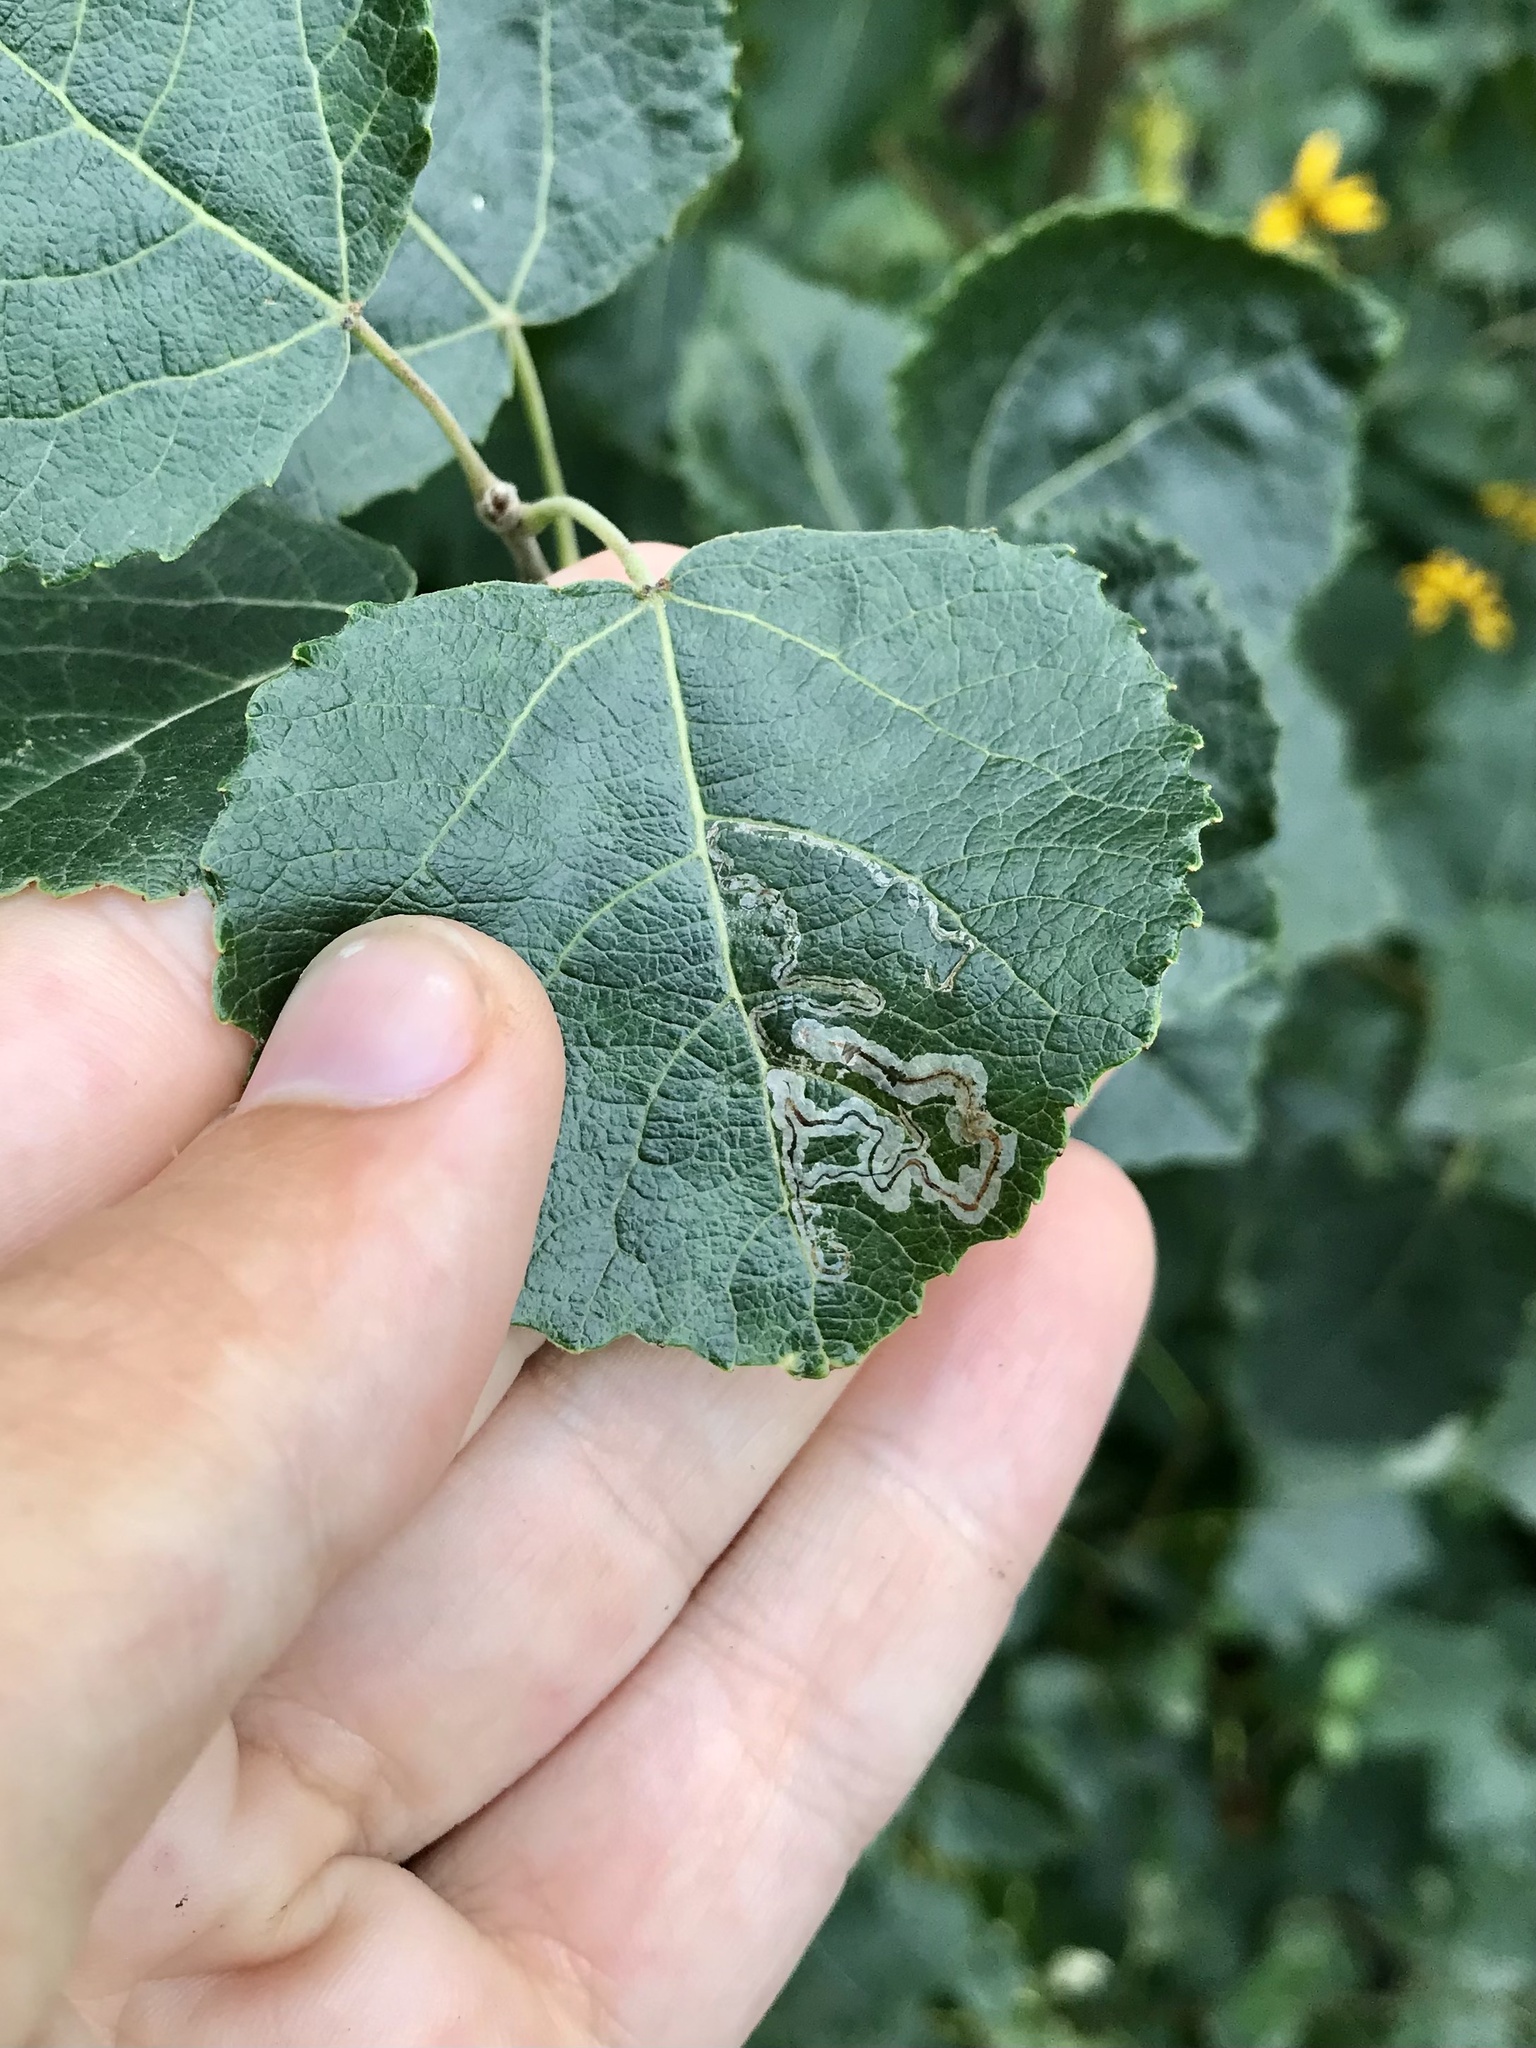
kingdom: Animalia
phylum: Arthropoda
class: Insecta
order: Lepidoptera
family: Gracillariidae
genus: Phyllocnistis
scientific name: Phyllocnistis populiella
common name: Aspen serpentine leafminer moth
